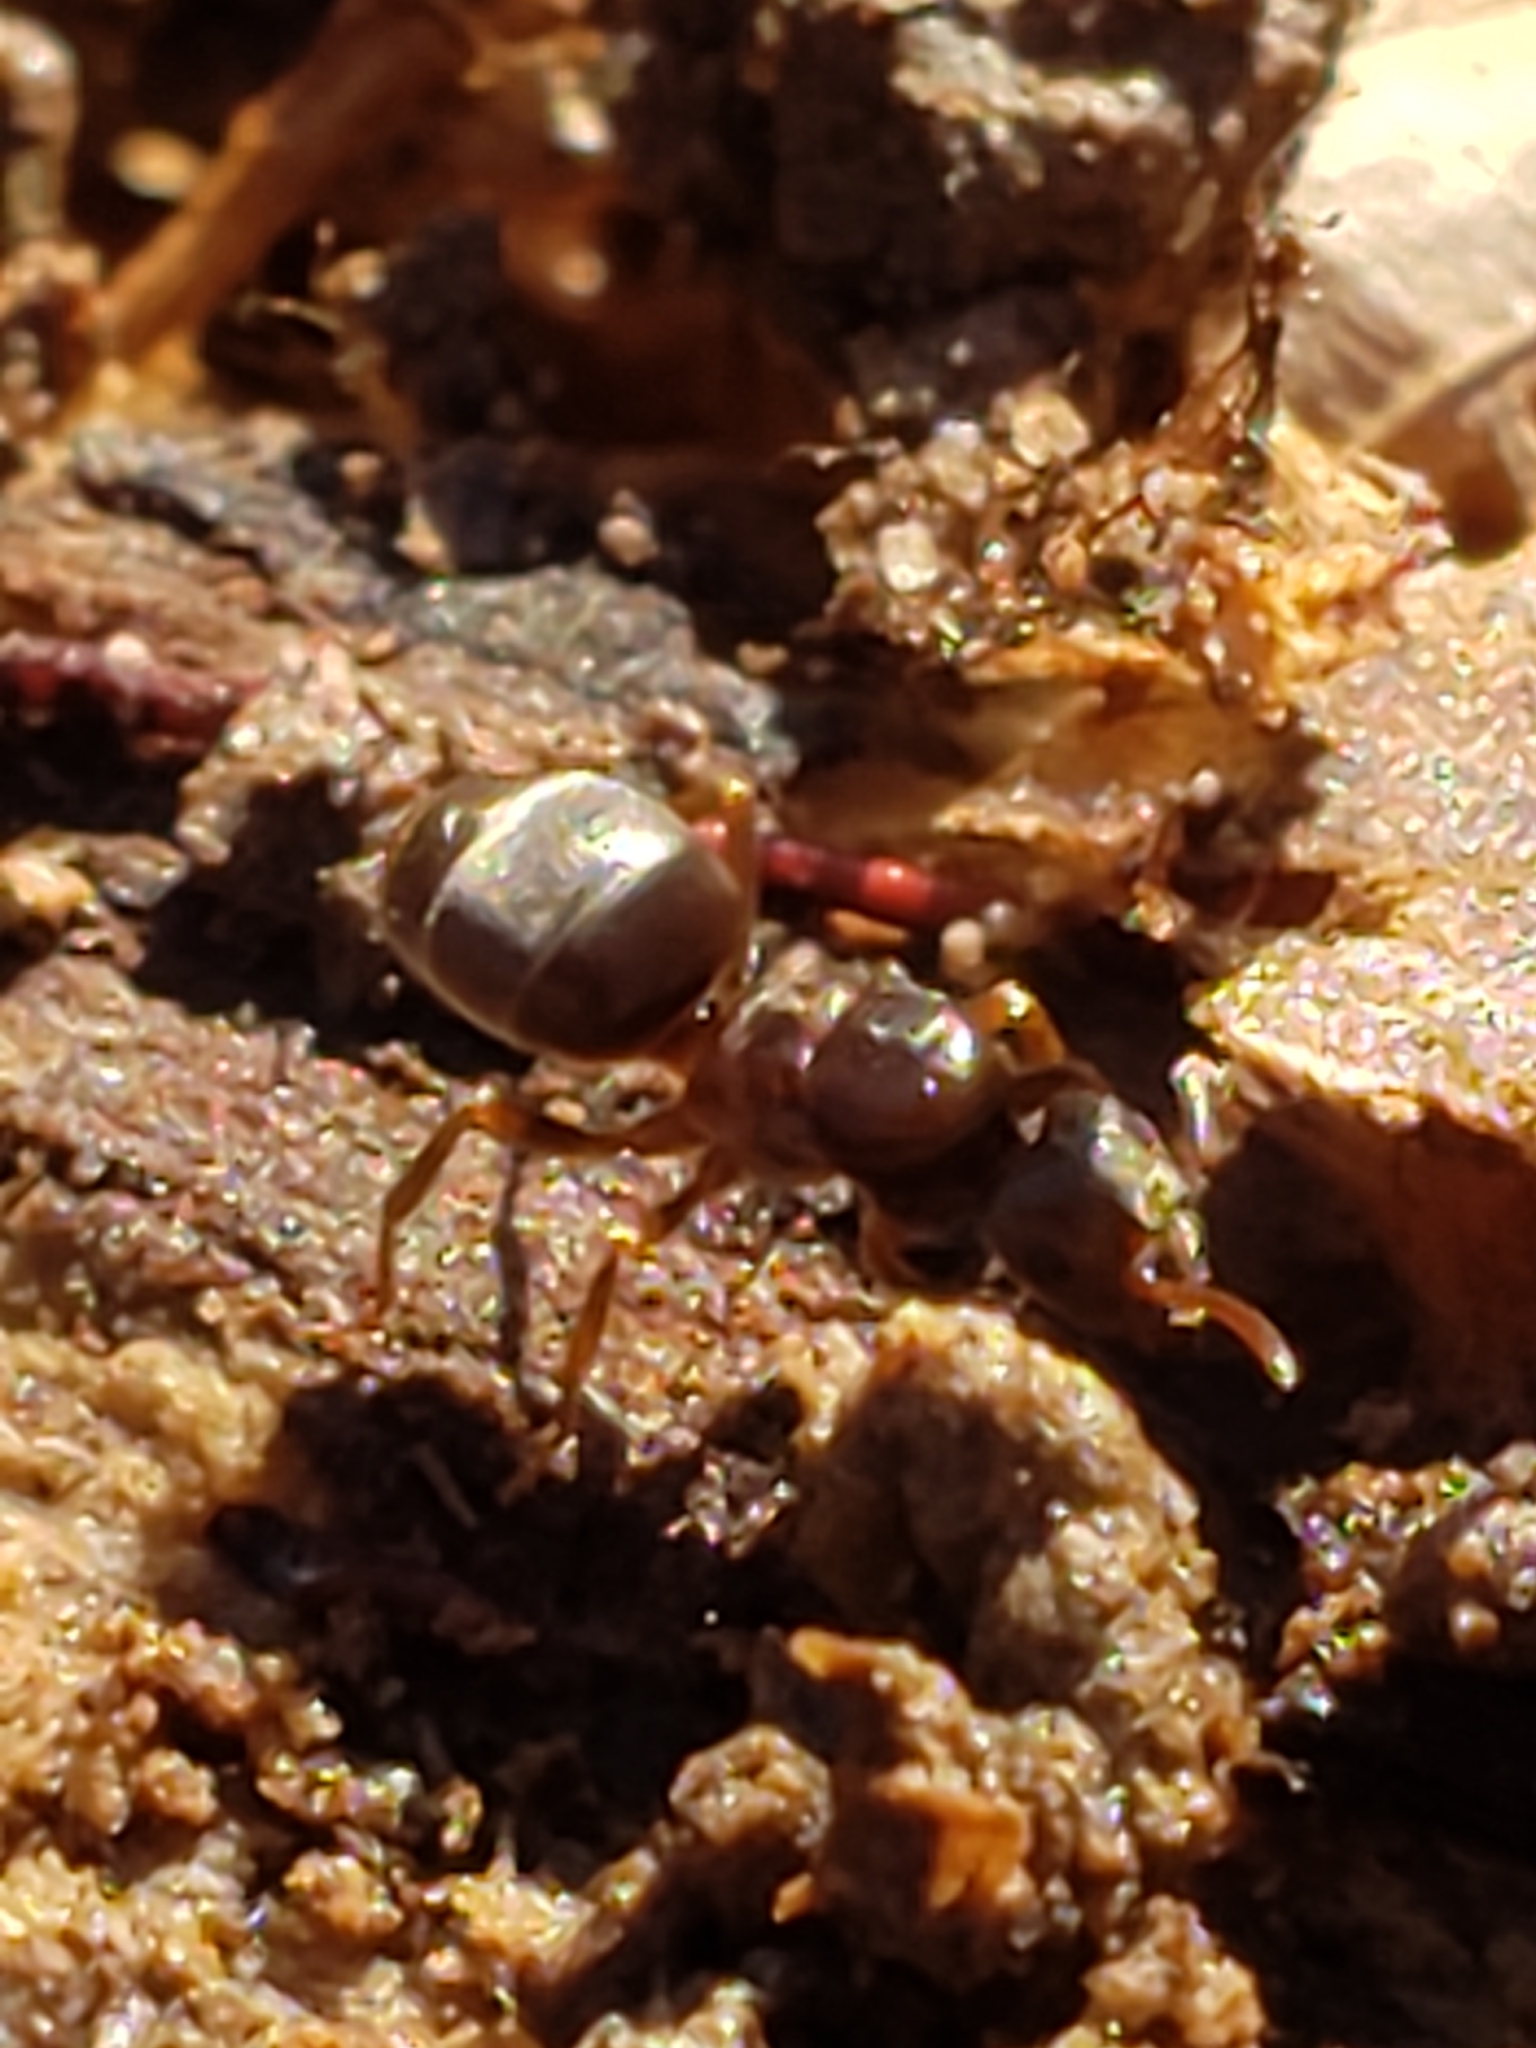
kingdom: Animalia
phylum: Arthropoda
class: Insecta
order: Hymenoptera
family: Formicidae
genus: Lasius
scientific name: Lasius aphidicola
